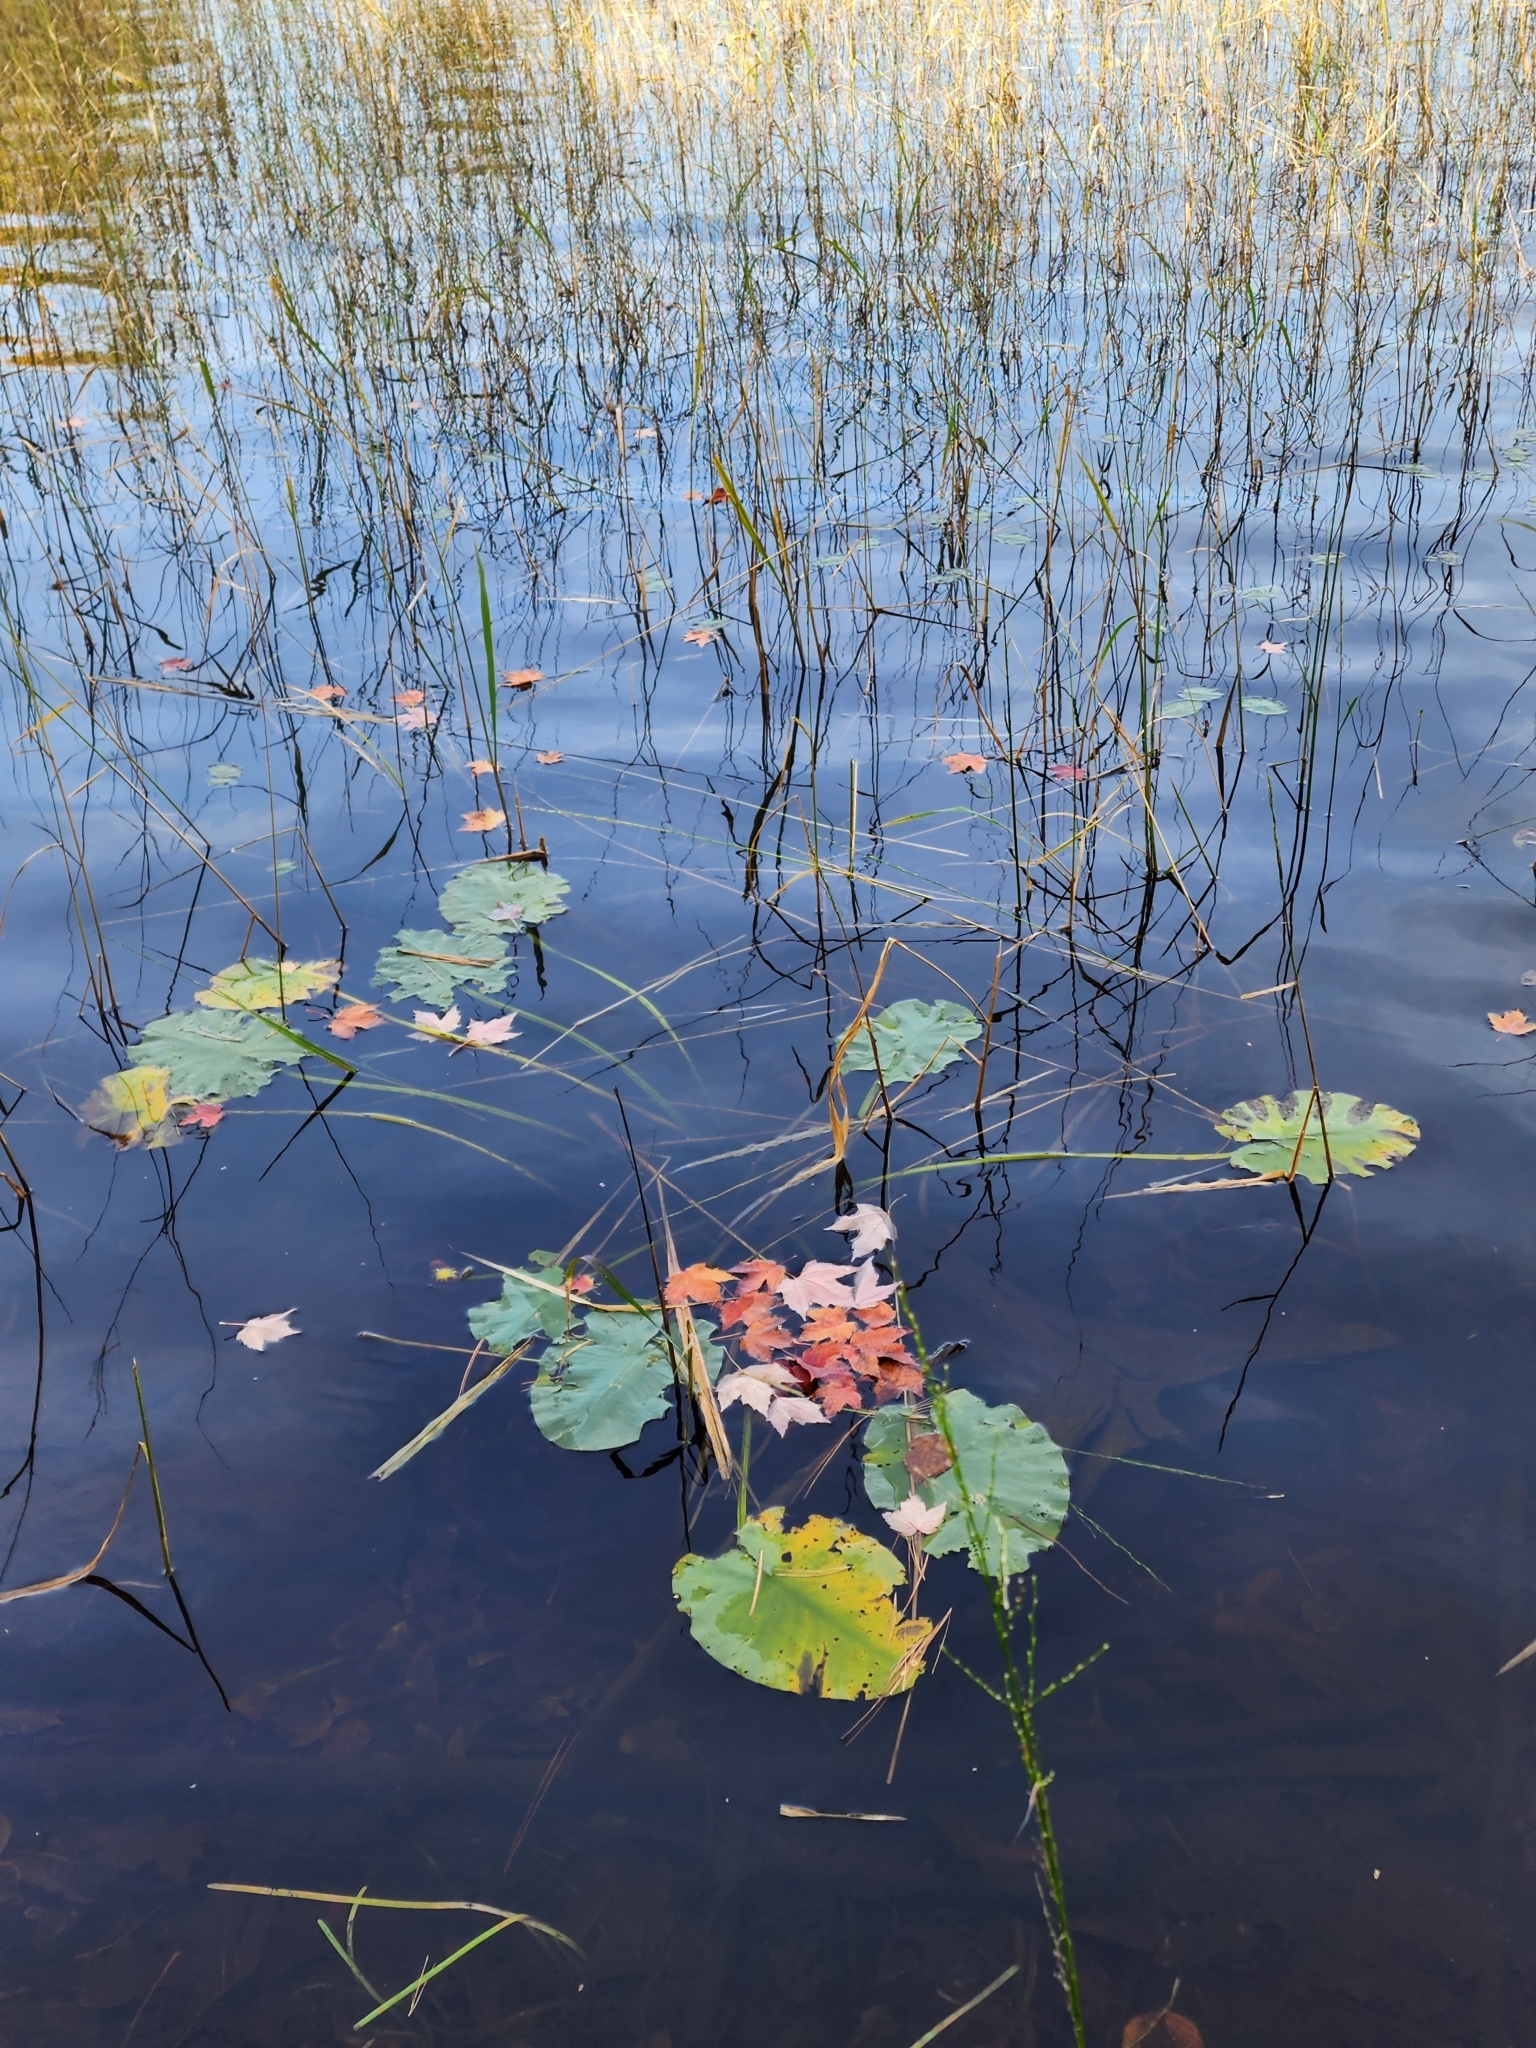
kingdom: Plantae
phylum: Tracheophyta
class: Magnoliopsida
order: Nymphaeales
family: Nymphaeaceae
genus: Nuphar
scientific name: Nuphar variegata
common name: Beaver-root
